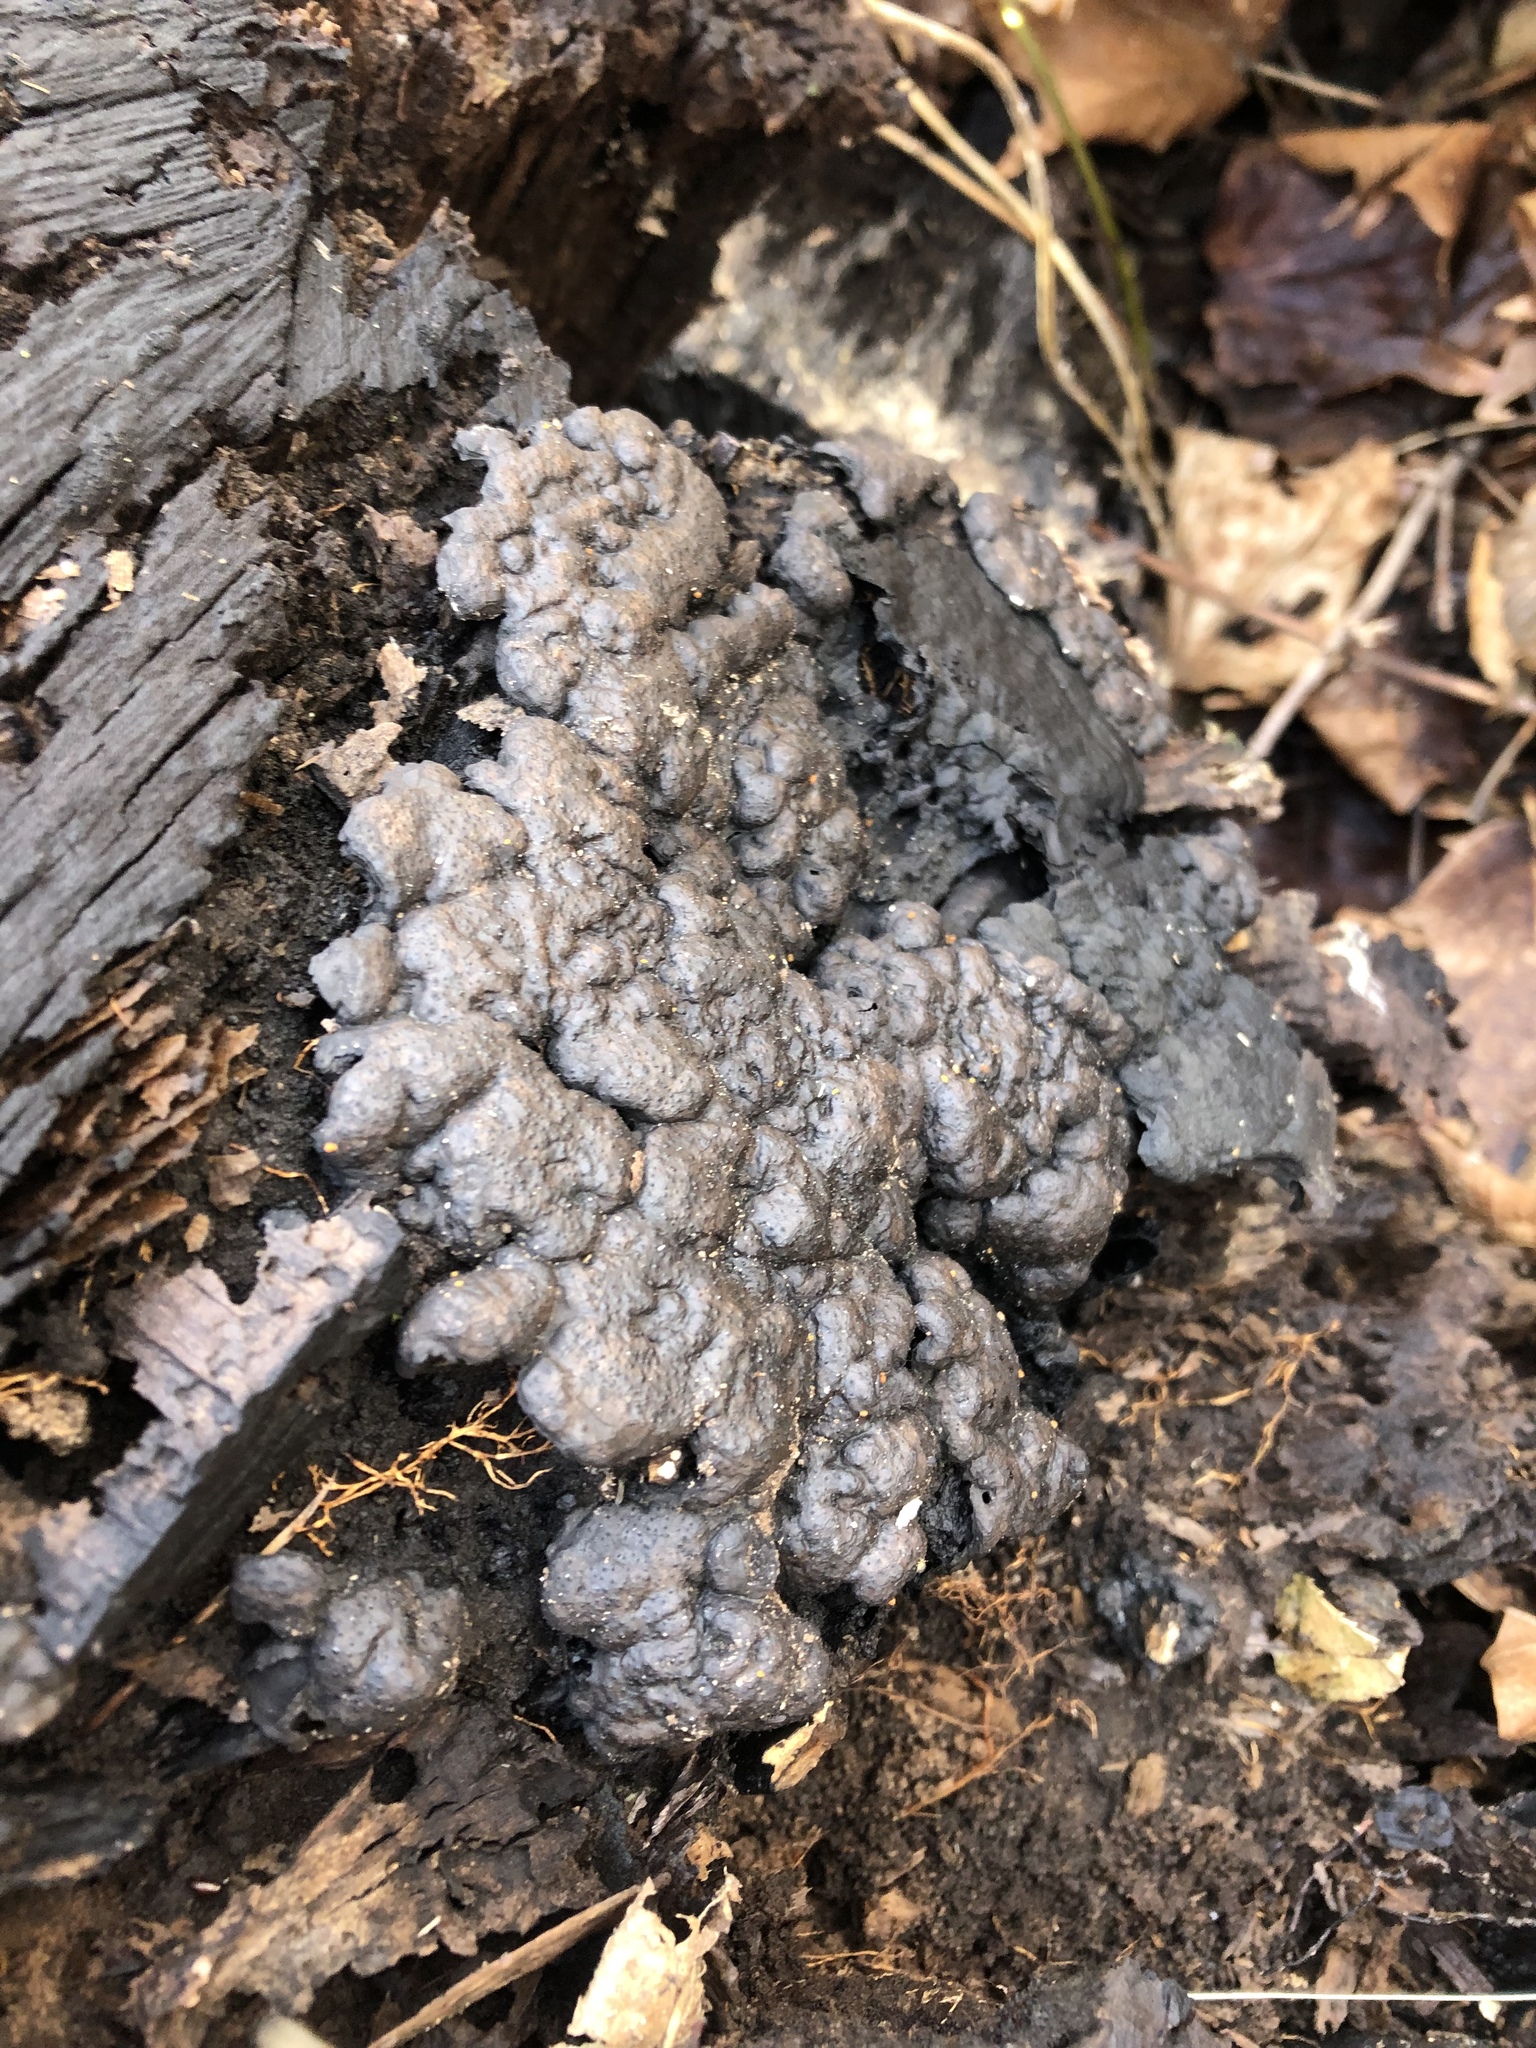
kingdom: Fungi
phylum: Ascomycota
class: Sordariomycetes
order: Xylariales
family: Xylariaceae
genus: Kretzschmaria
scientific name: Kretzschmaria deusta
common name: Brittle cinder
